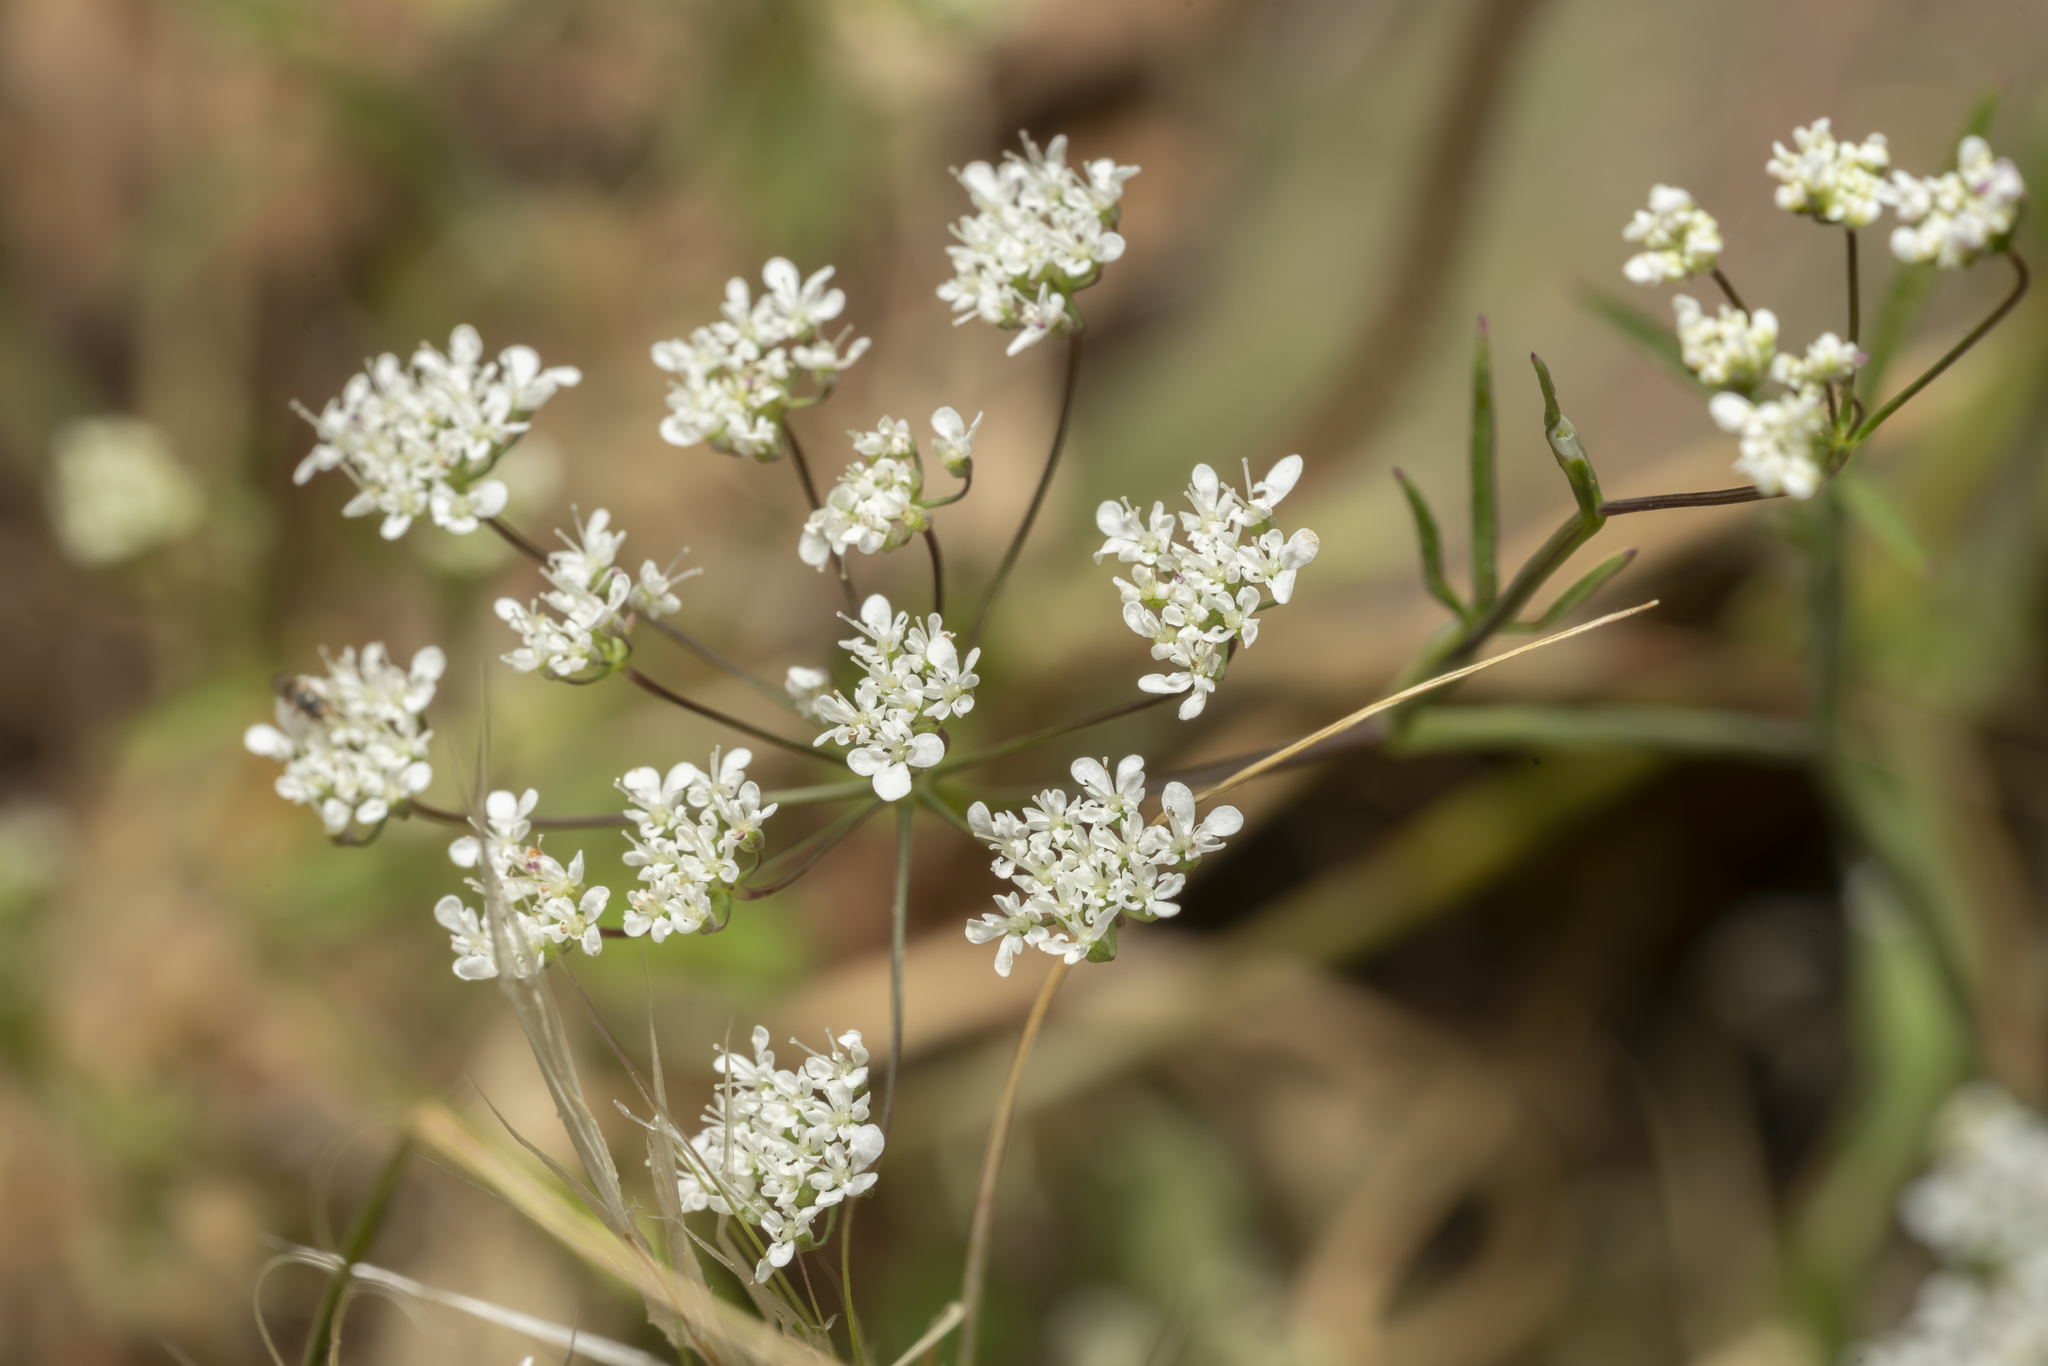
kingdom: Plantae
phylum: Tracheophyta
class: Magnoliopsida
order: Apiales
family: Apiaceae
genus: Pimpinella
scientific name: Pimpinella cretica
